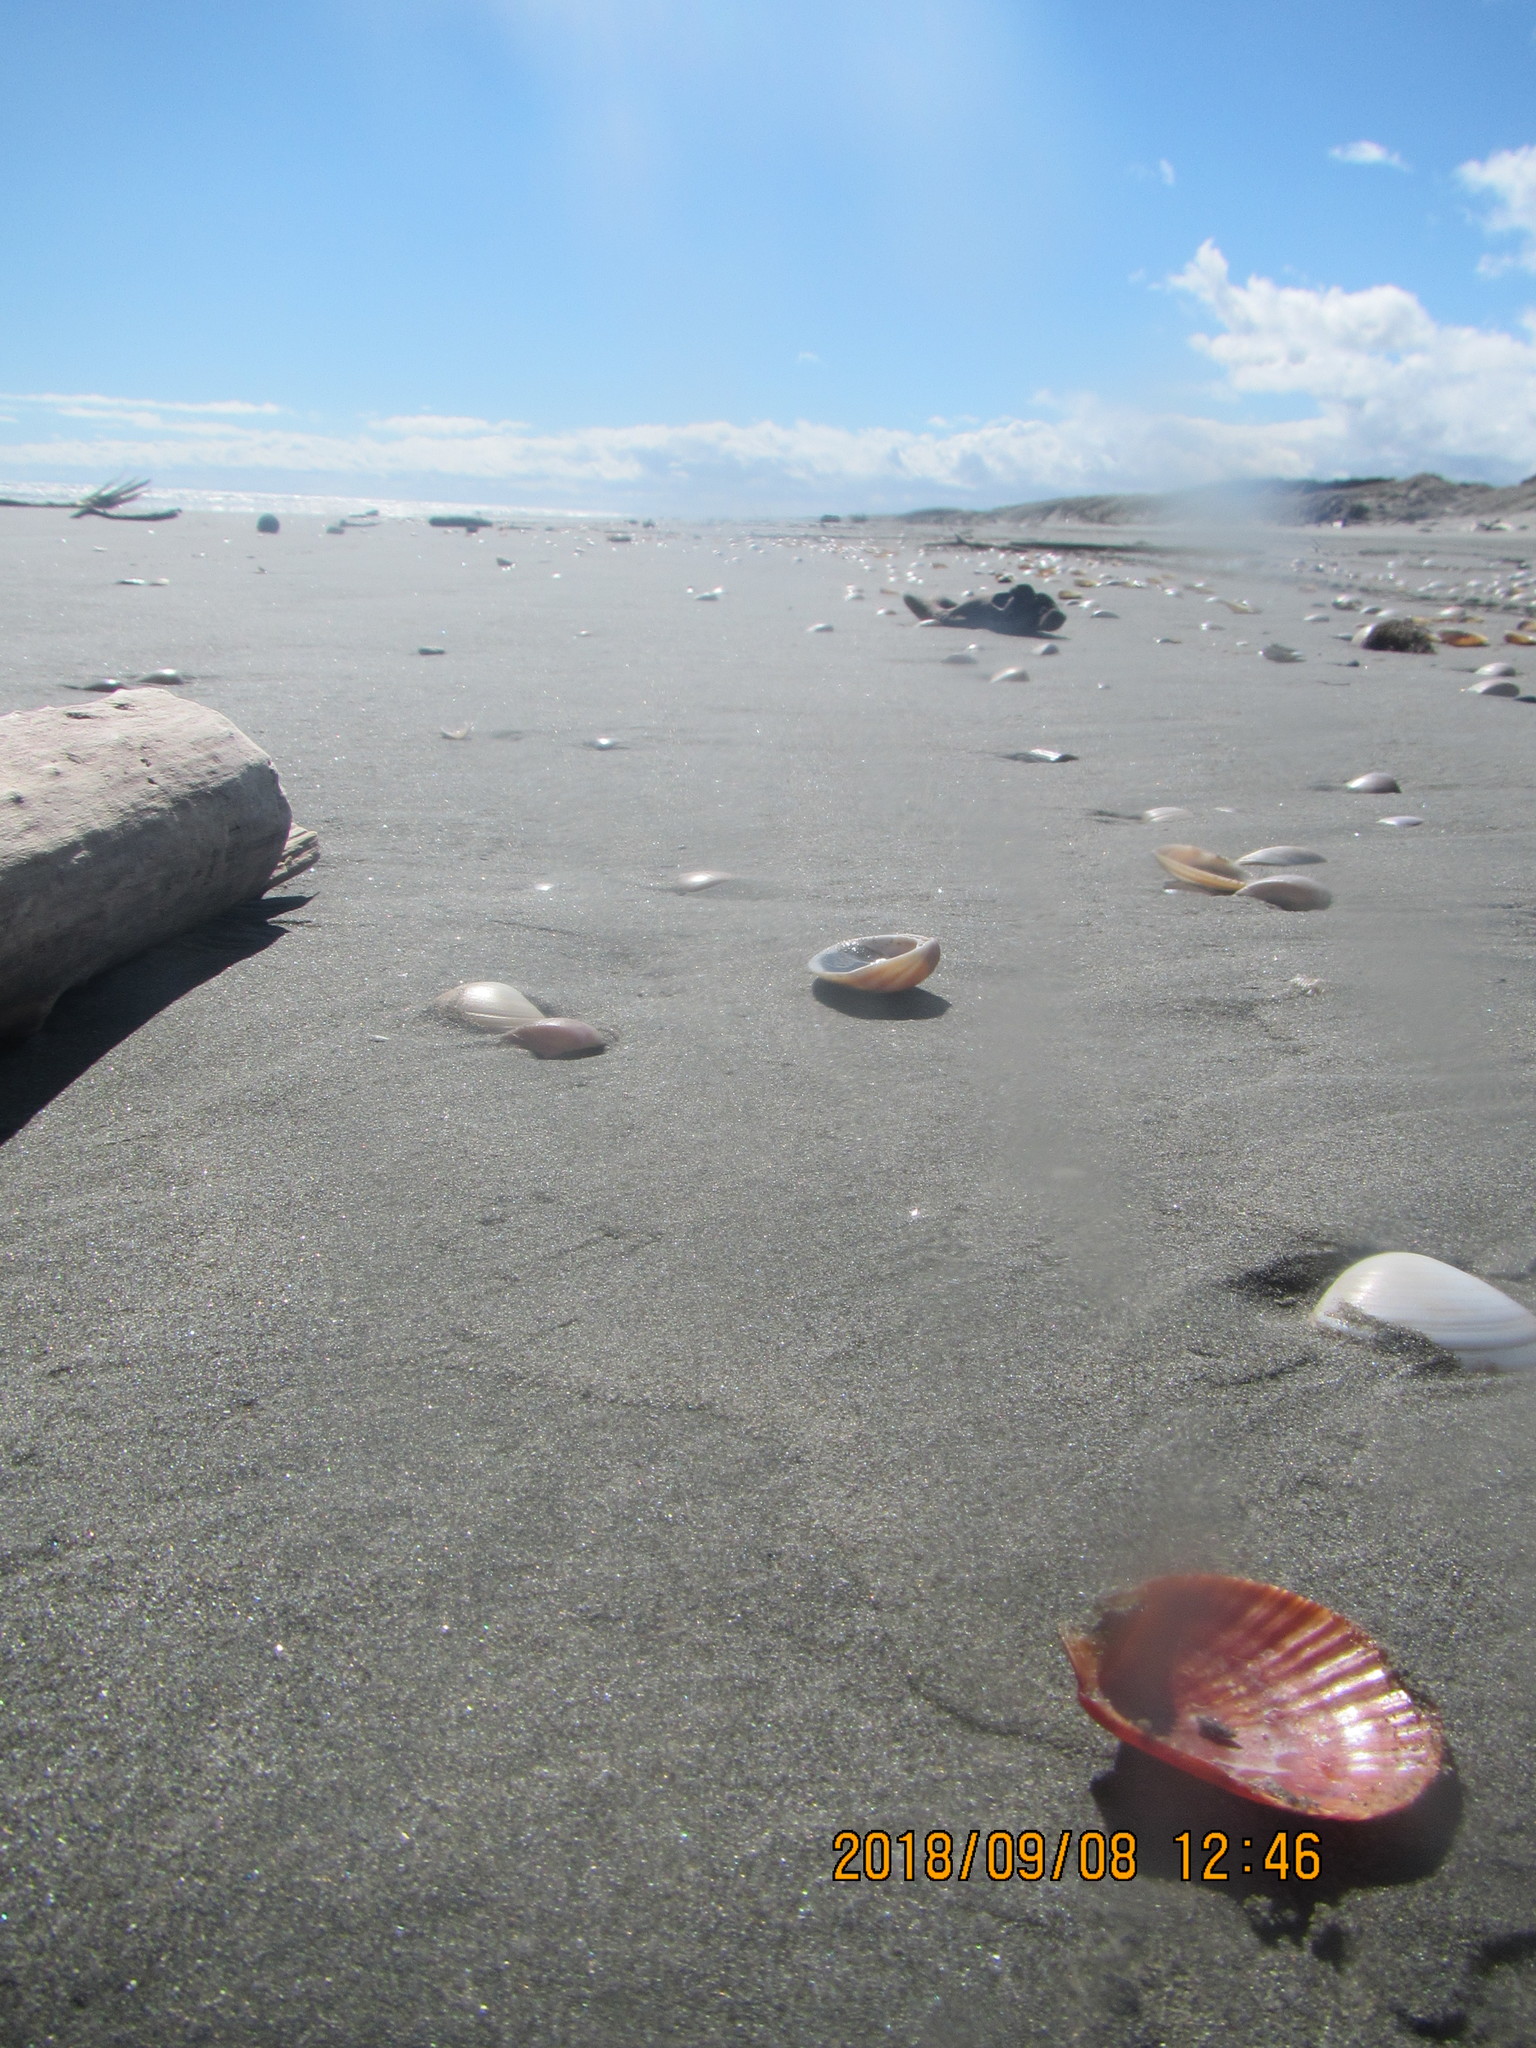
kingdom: Animalia
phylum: Mollusca
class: Bivalvia
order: Pectinida
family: Pectinidae
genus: Talochlamys
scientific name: Talochlamys zelandiae
